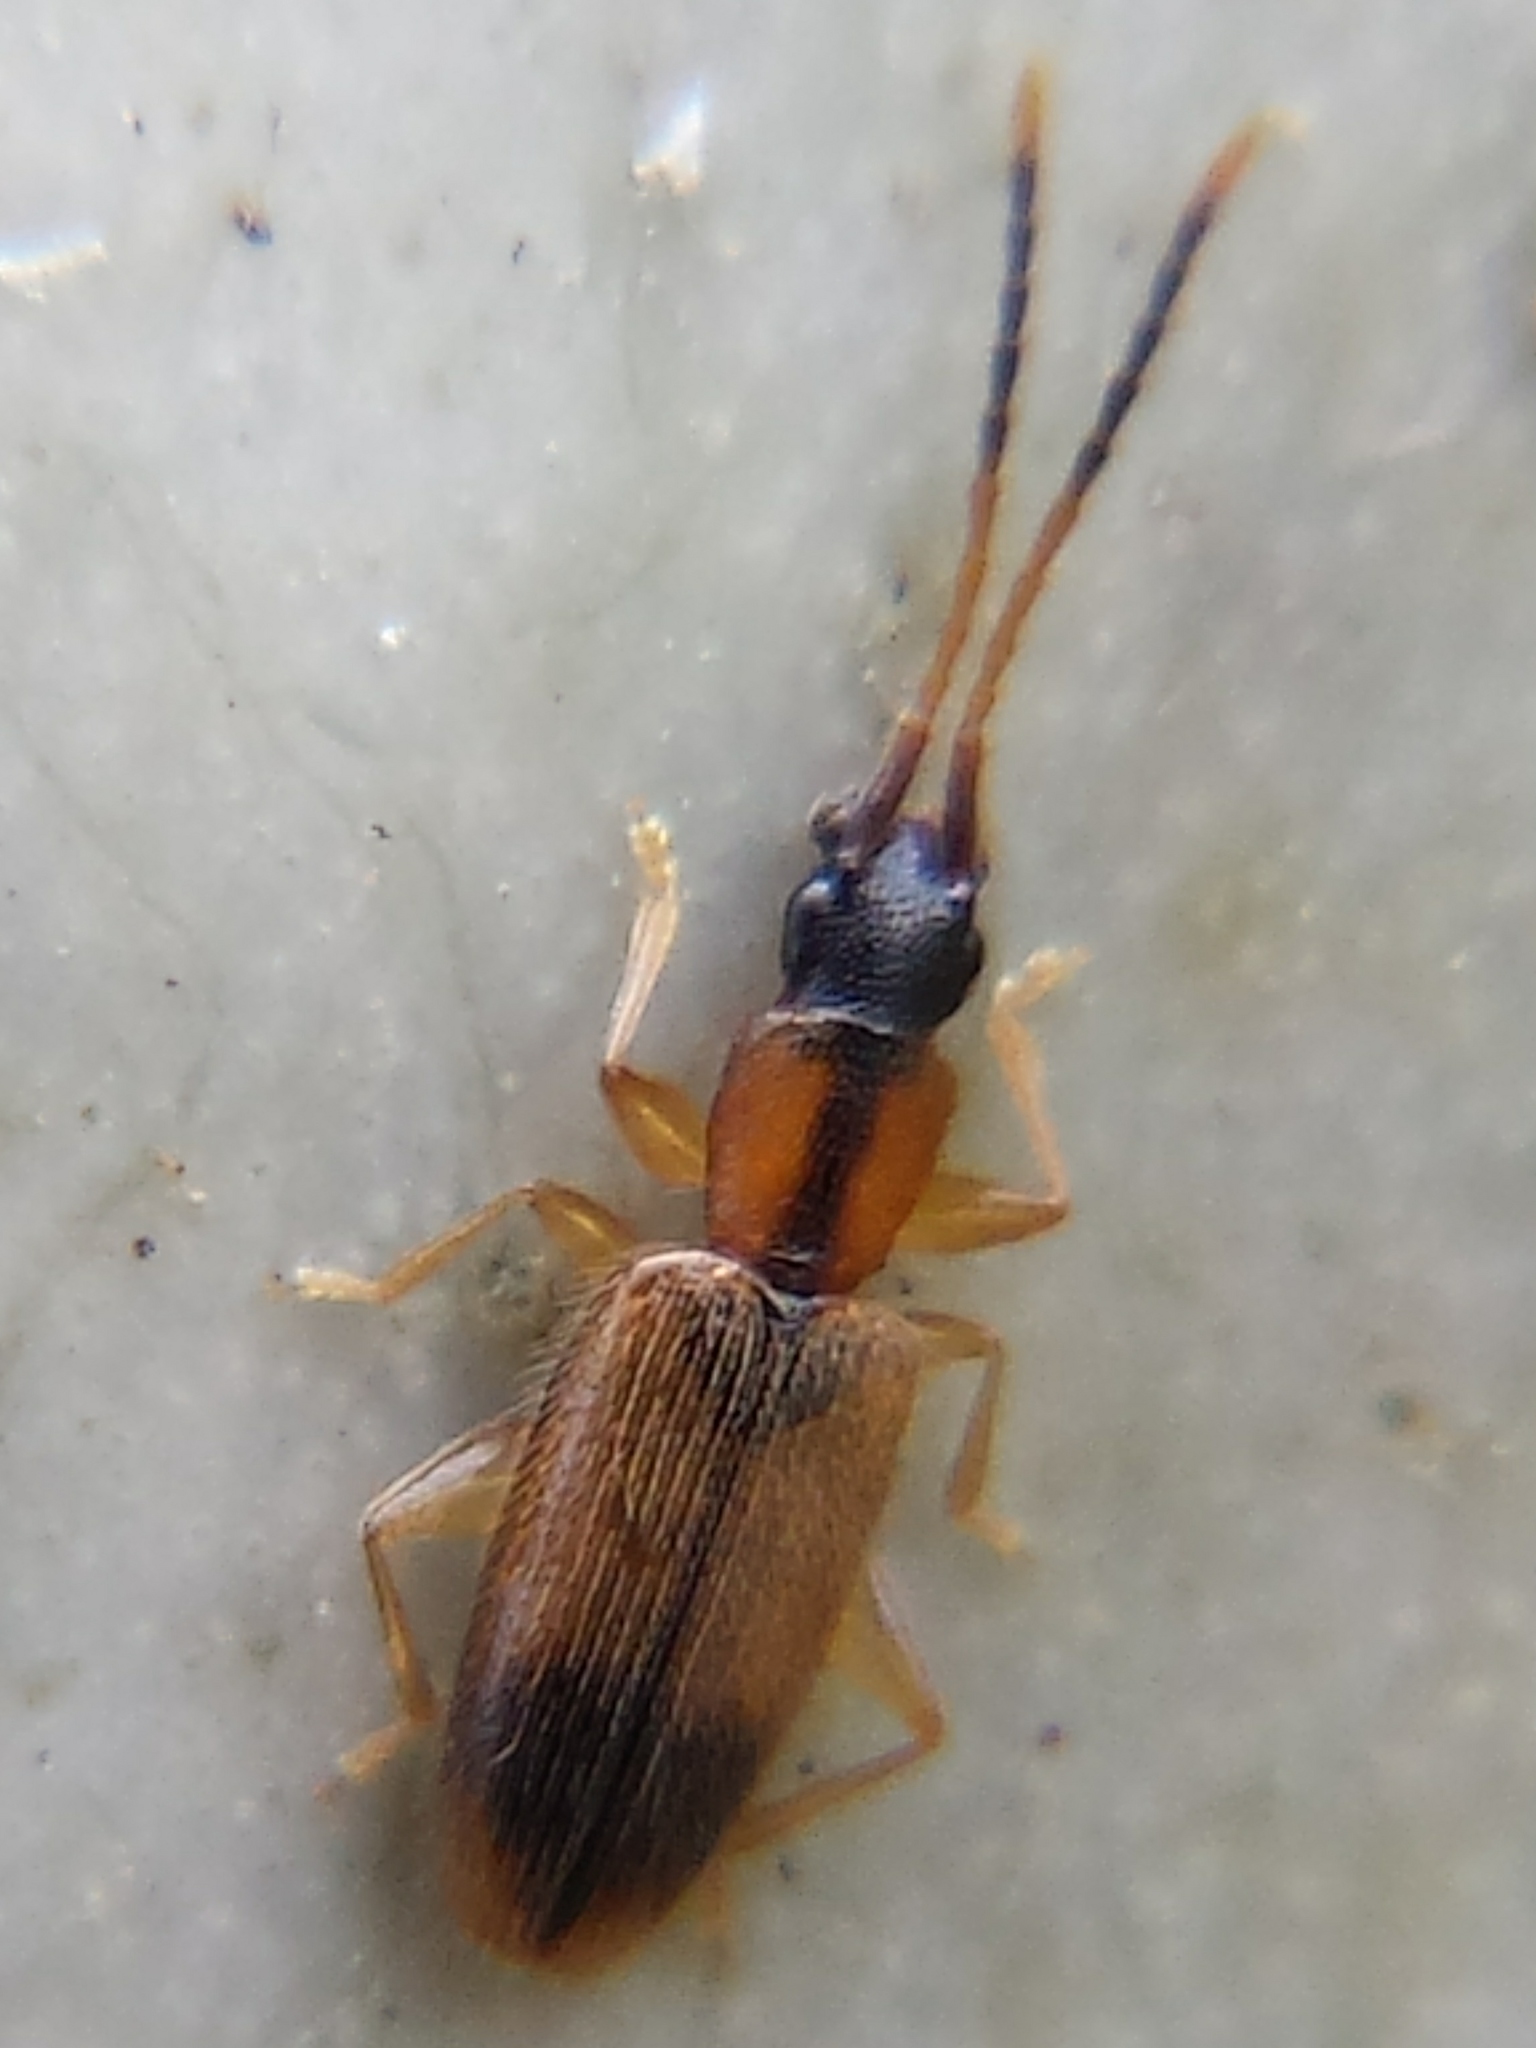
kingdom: Animalia
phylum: Arthropoda
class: Insecta
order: Coleoptera
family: Silvanidae
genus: Telephanus
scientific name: Telephanus velox
